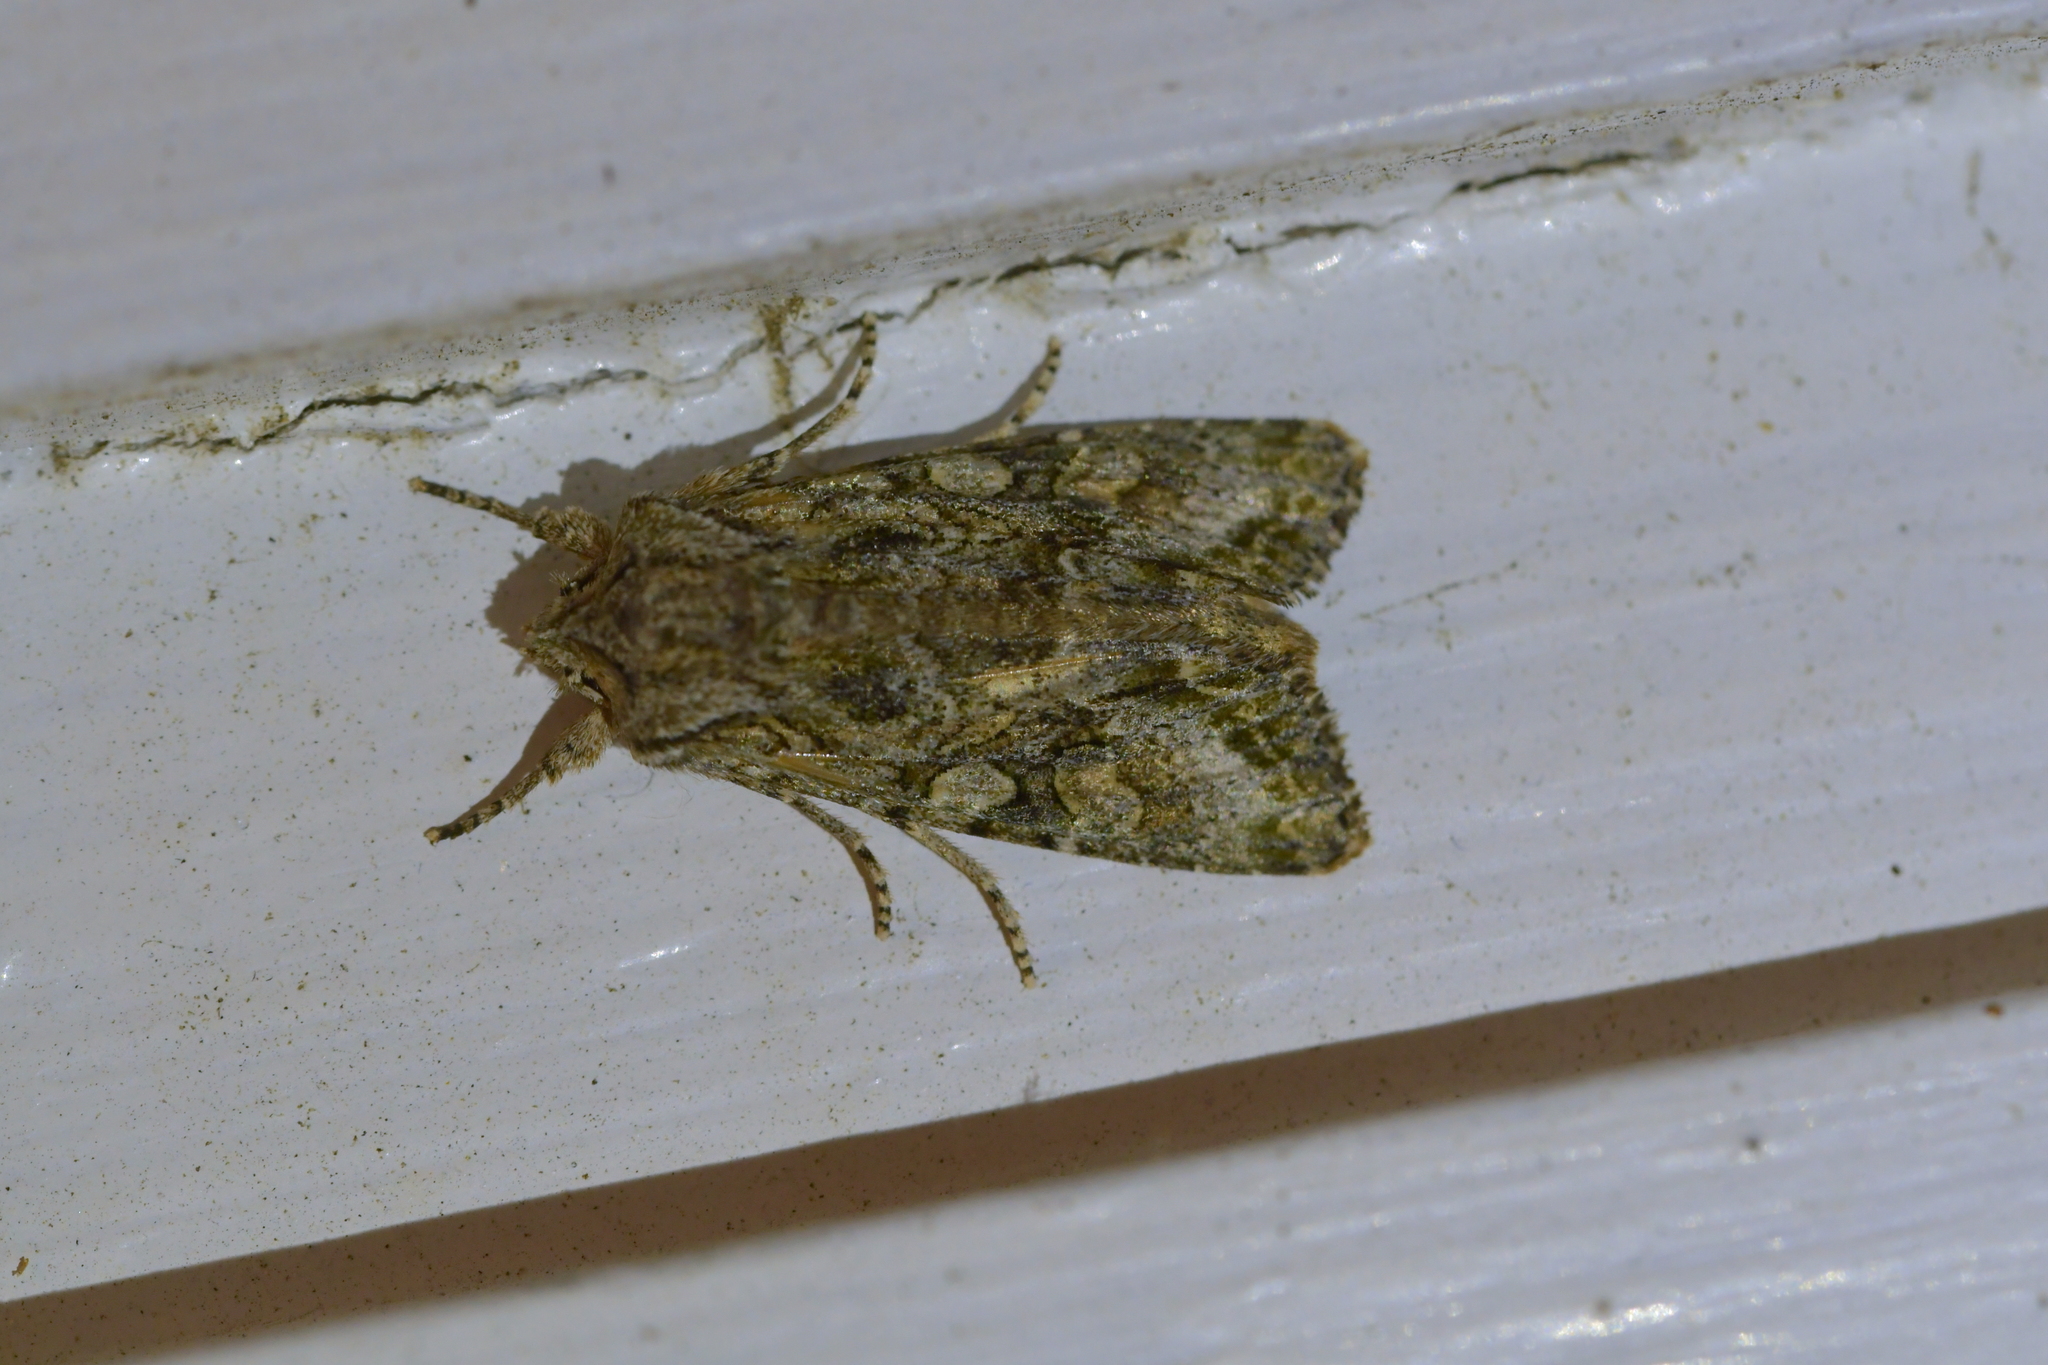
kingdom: Animalia
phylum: Arthropoda
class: Insecta
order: Lepidoptera
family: Noctuidae
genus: Ichneutica
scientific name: Ichneutica mutans
